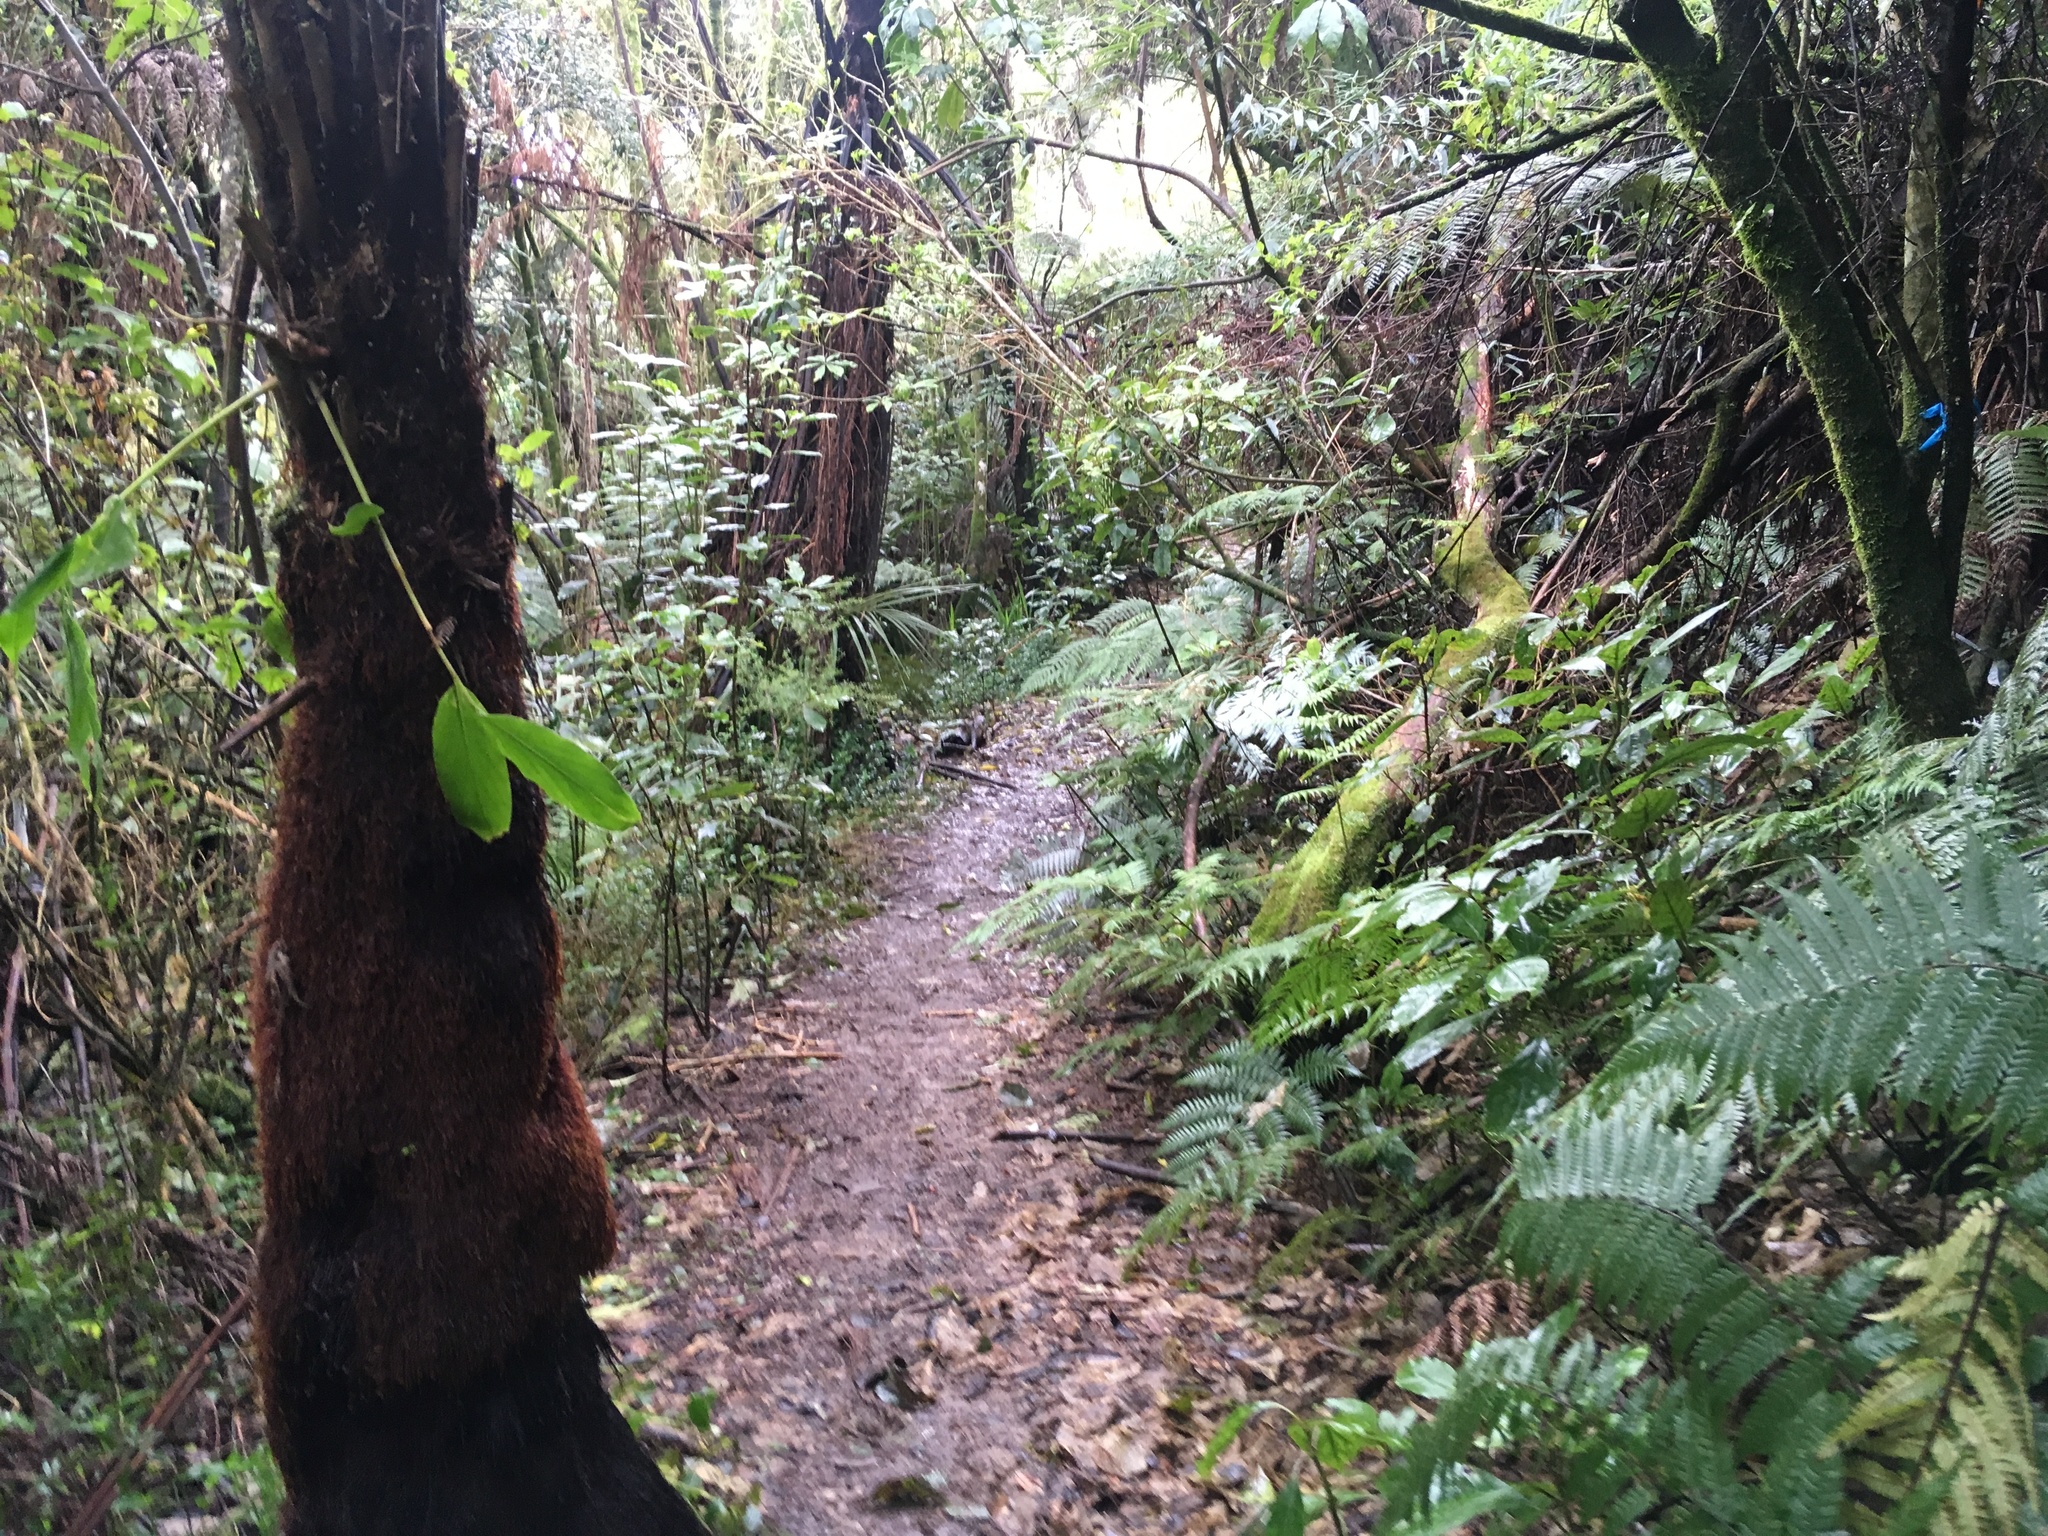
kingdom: Plantae
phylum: Tracheophyta
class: Liliopsida
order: Zingiberales
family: Zingiberaceae
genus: Hedychium
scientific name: Hedychium gardnerianum
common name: Himalayan ginger
